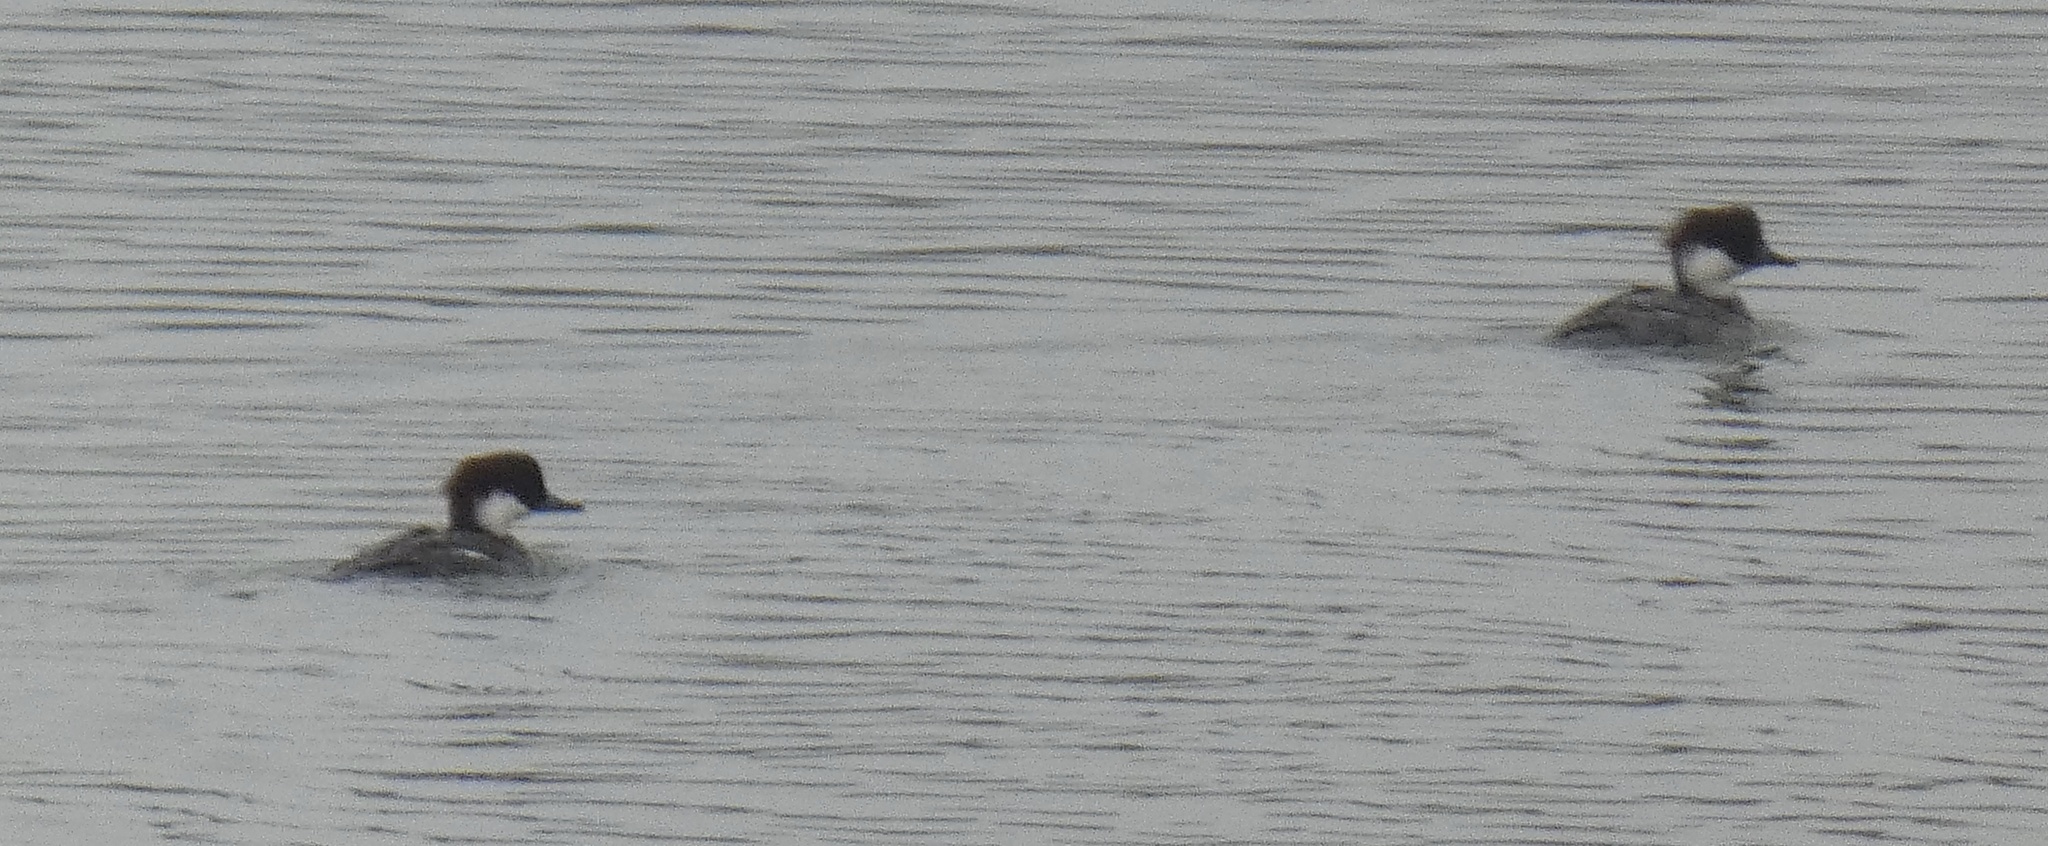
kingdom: Animalia
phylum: Chordata
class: Aves
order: Anseriformes
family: Anatidae
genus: Mergellus
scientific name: Mergellus albellus
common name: Smew
